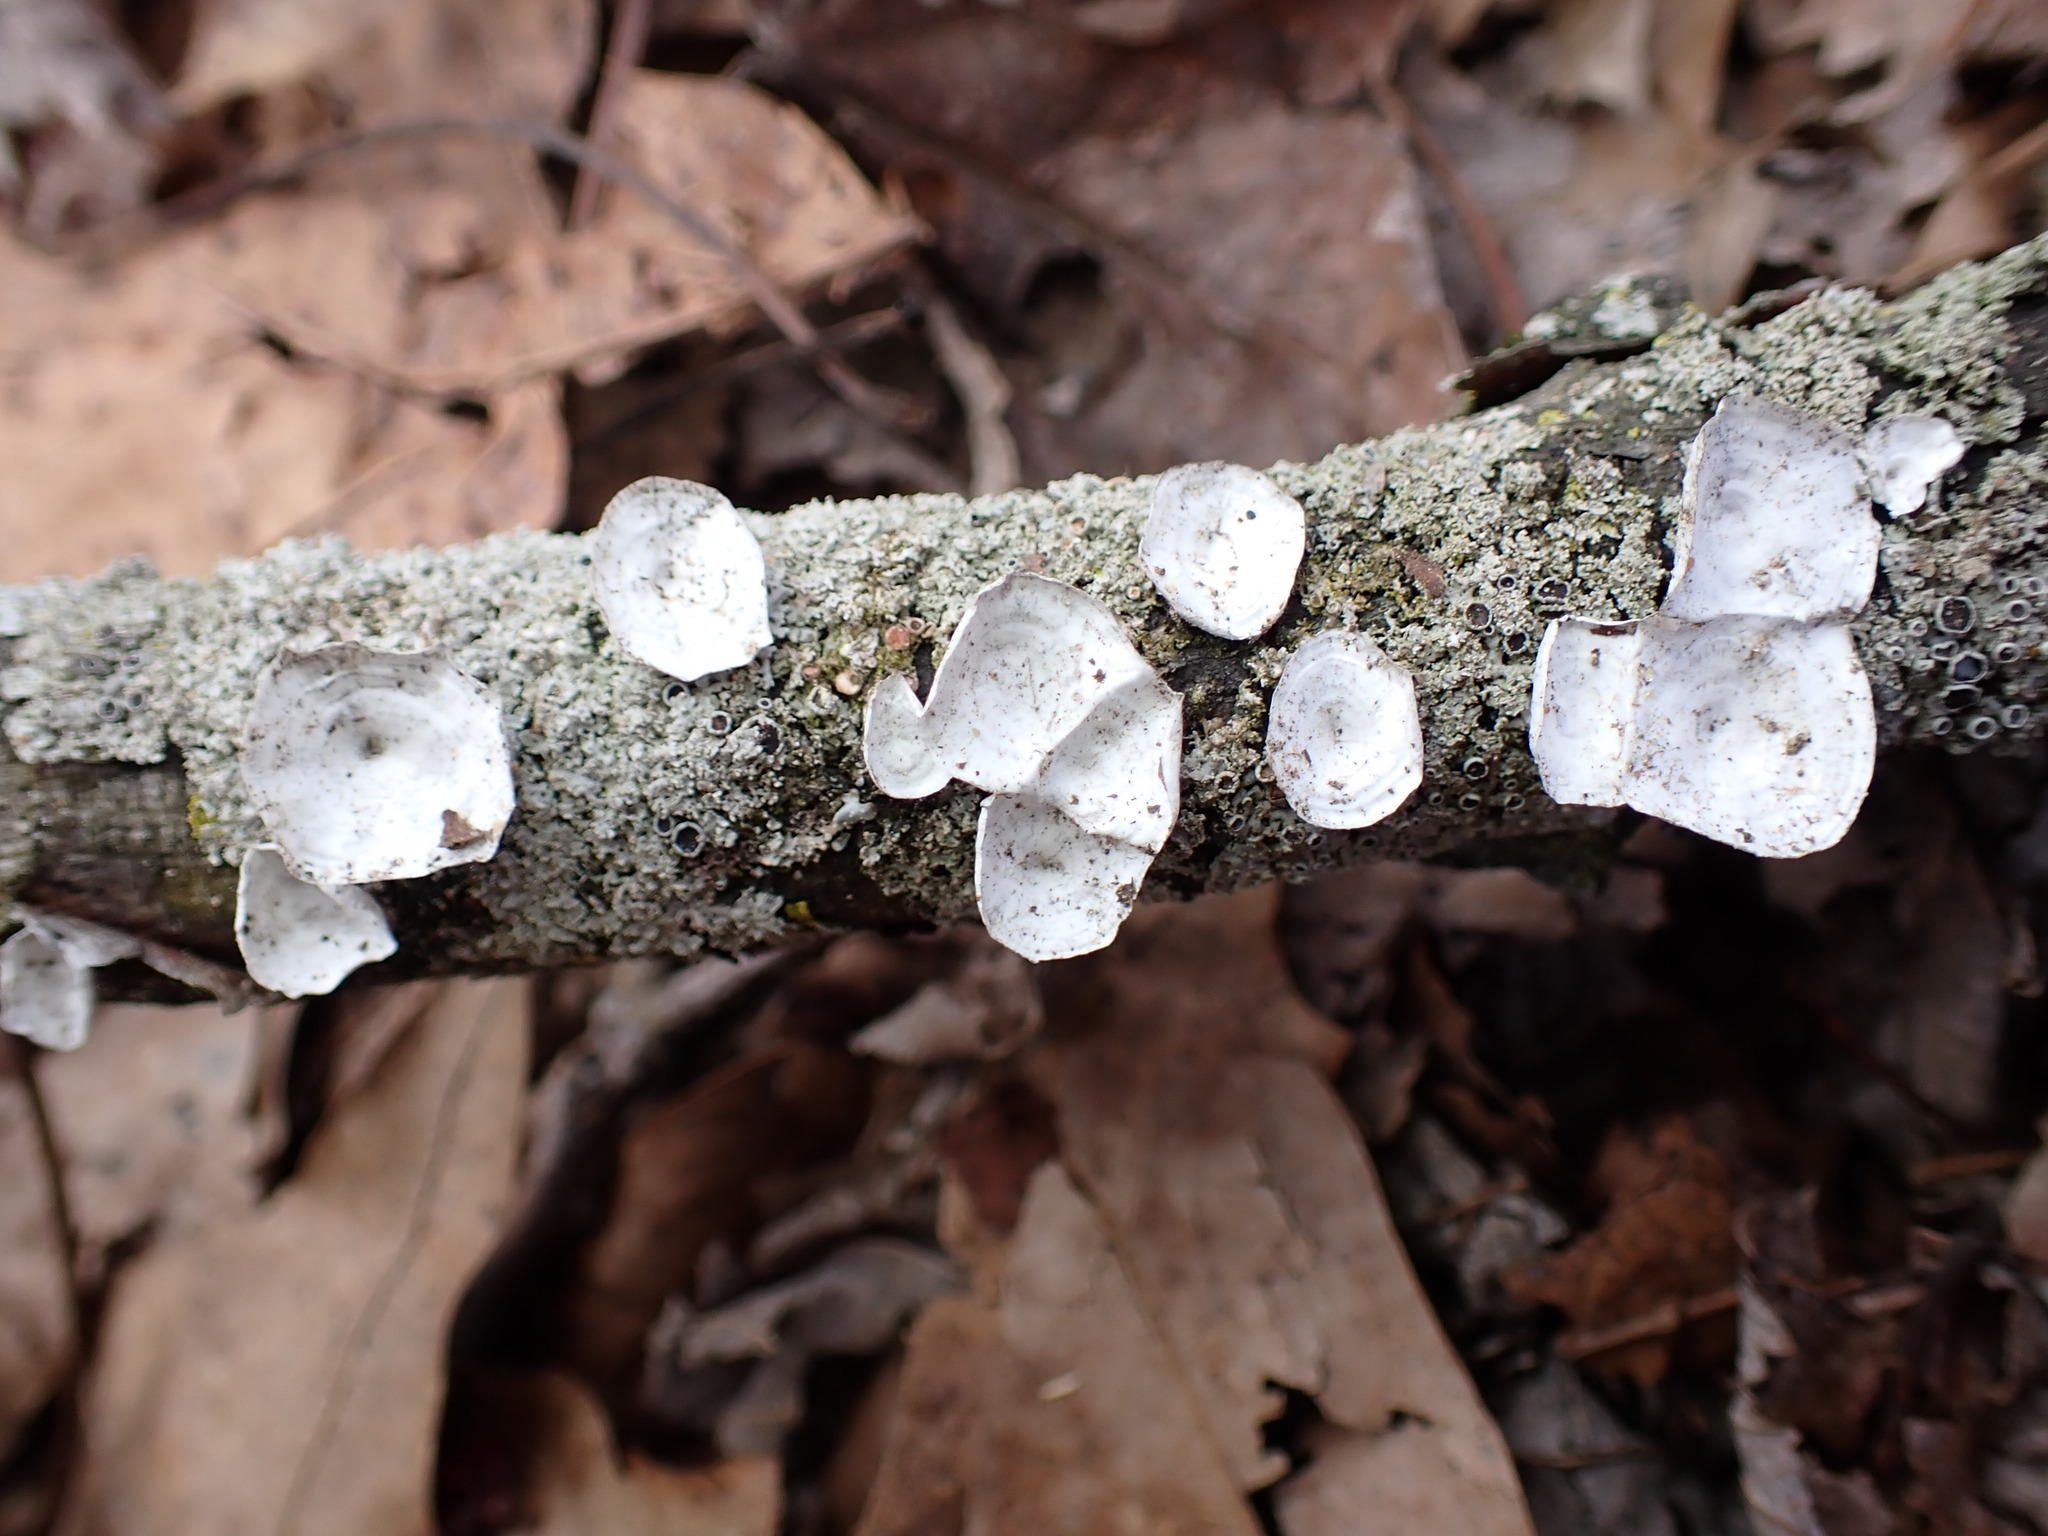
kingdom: Fungi
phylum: Basidiomycota
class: Agaricomycetes
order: Polyporales
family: Polyporaceae
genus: Poronidulus
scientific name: Poronidulus conchifer
